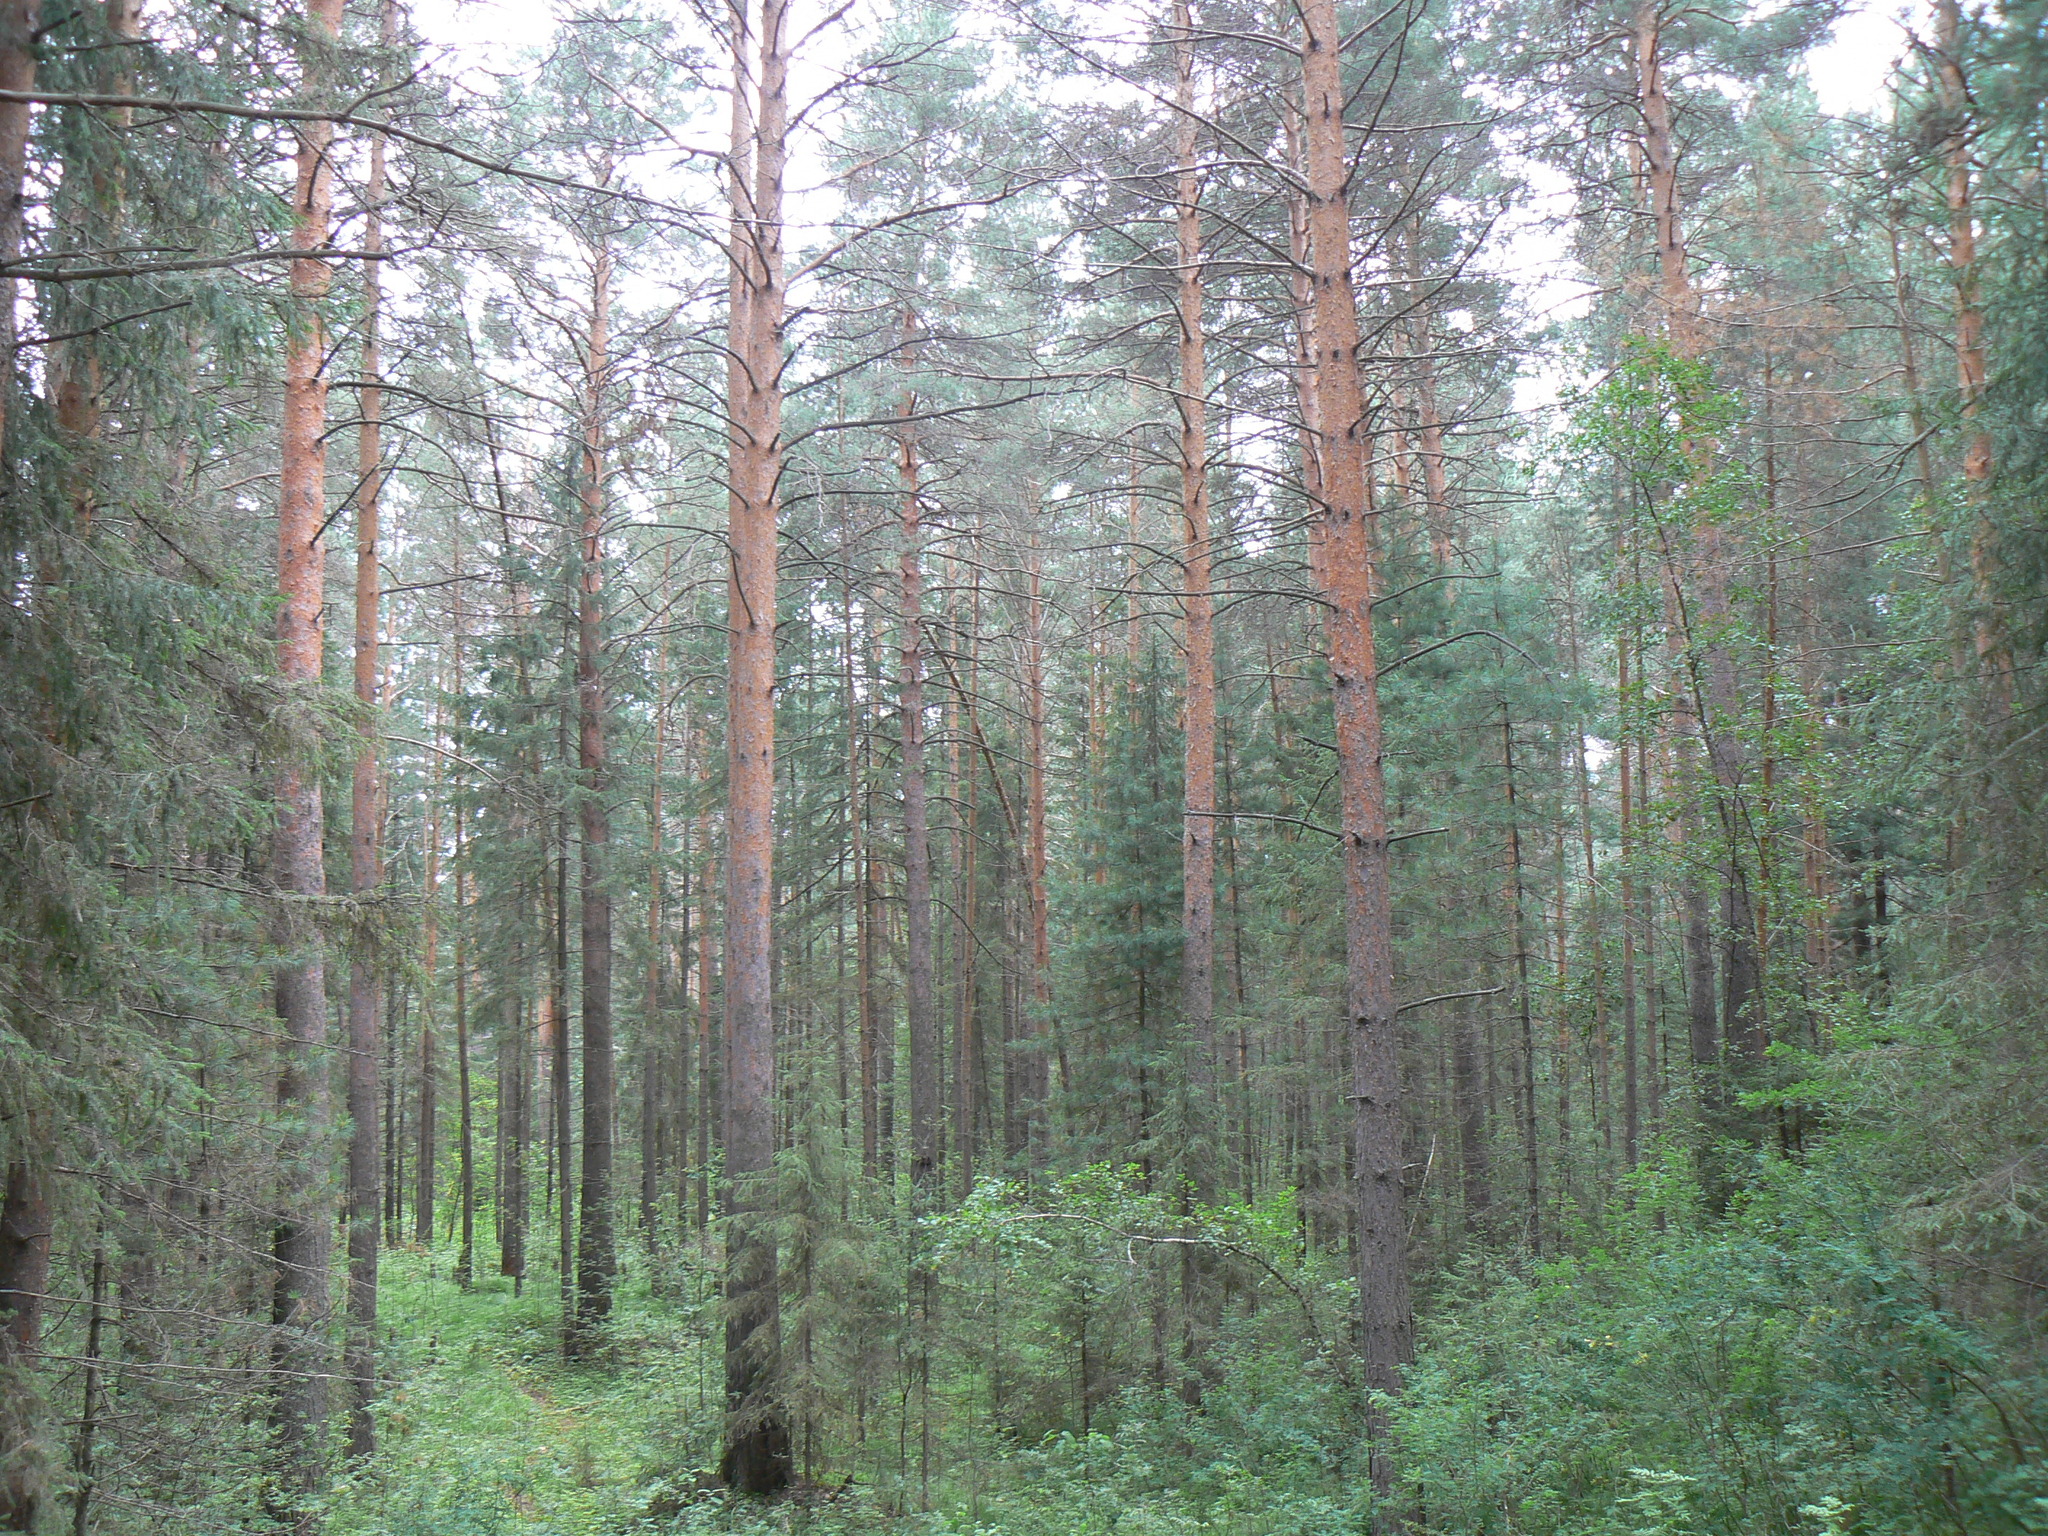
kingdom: Plantae
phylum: Tracheophyta
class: Pinopsida
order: Pinales
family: Pinaceae
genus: Pinus
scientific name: Pinus sylvestris
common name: Scots pine
